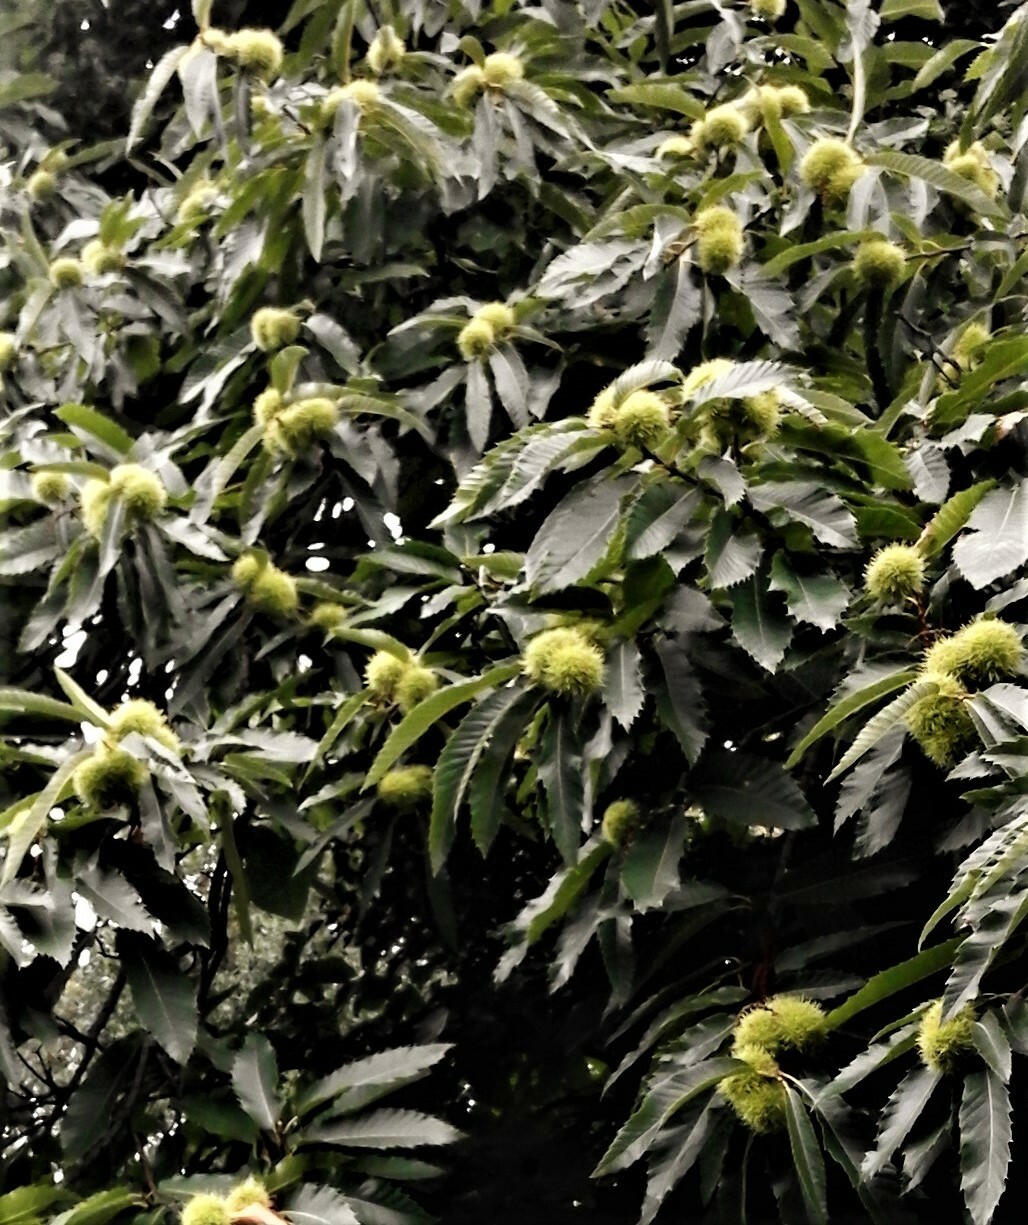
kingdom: Plantae
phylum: Tracheophyta
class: Magnoliopsida
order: Fagales
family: Fagaceae
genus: Castanea
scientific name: Castanea sativa
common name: Sweet chestnut
